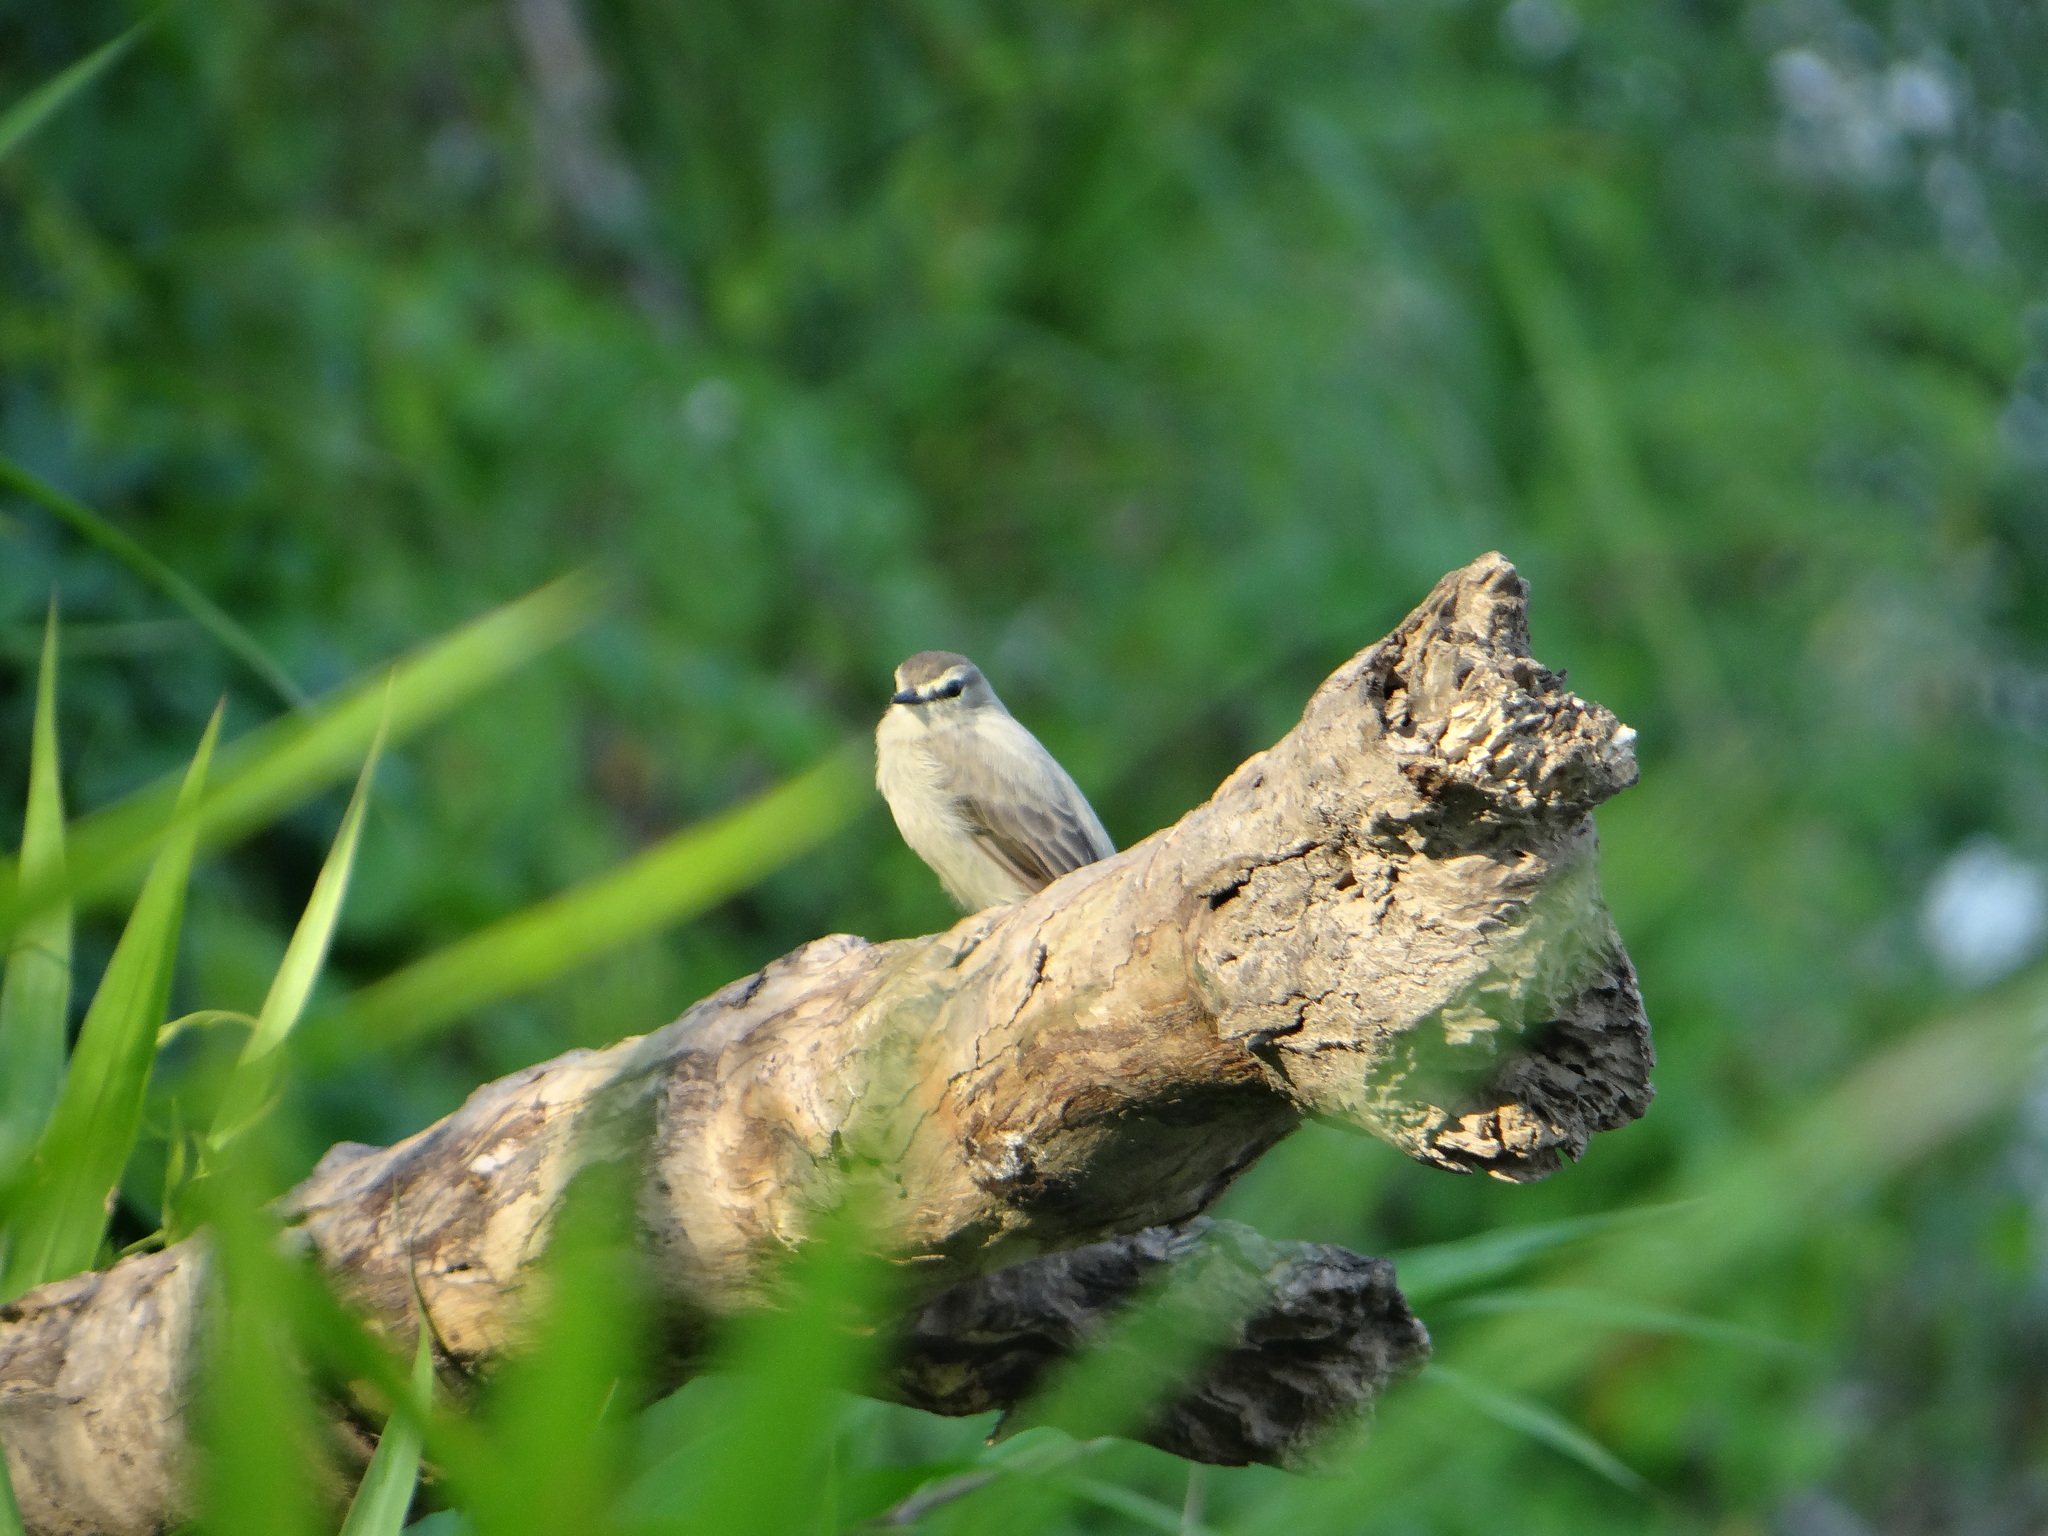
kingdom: Animalia
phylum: Chordata
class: Aves
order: Passeriformes
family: Tyrannidae
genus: Ochthornis
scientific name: Ochthornis littoralis
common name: Drab water tyrant
